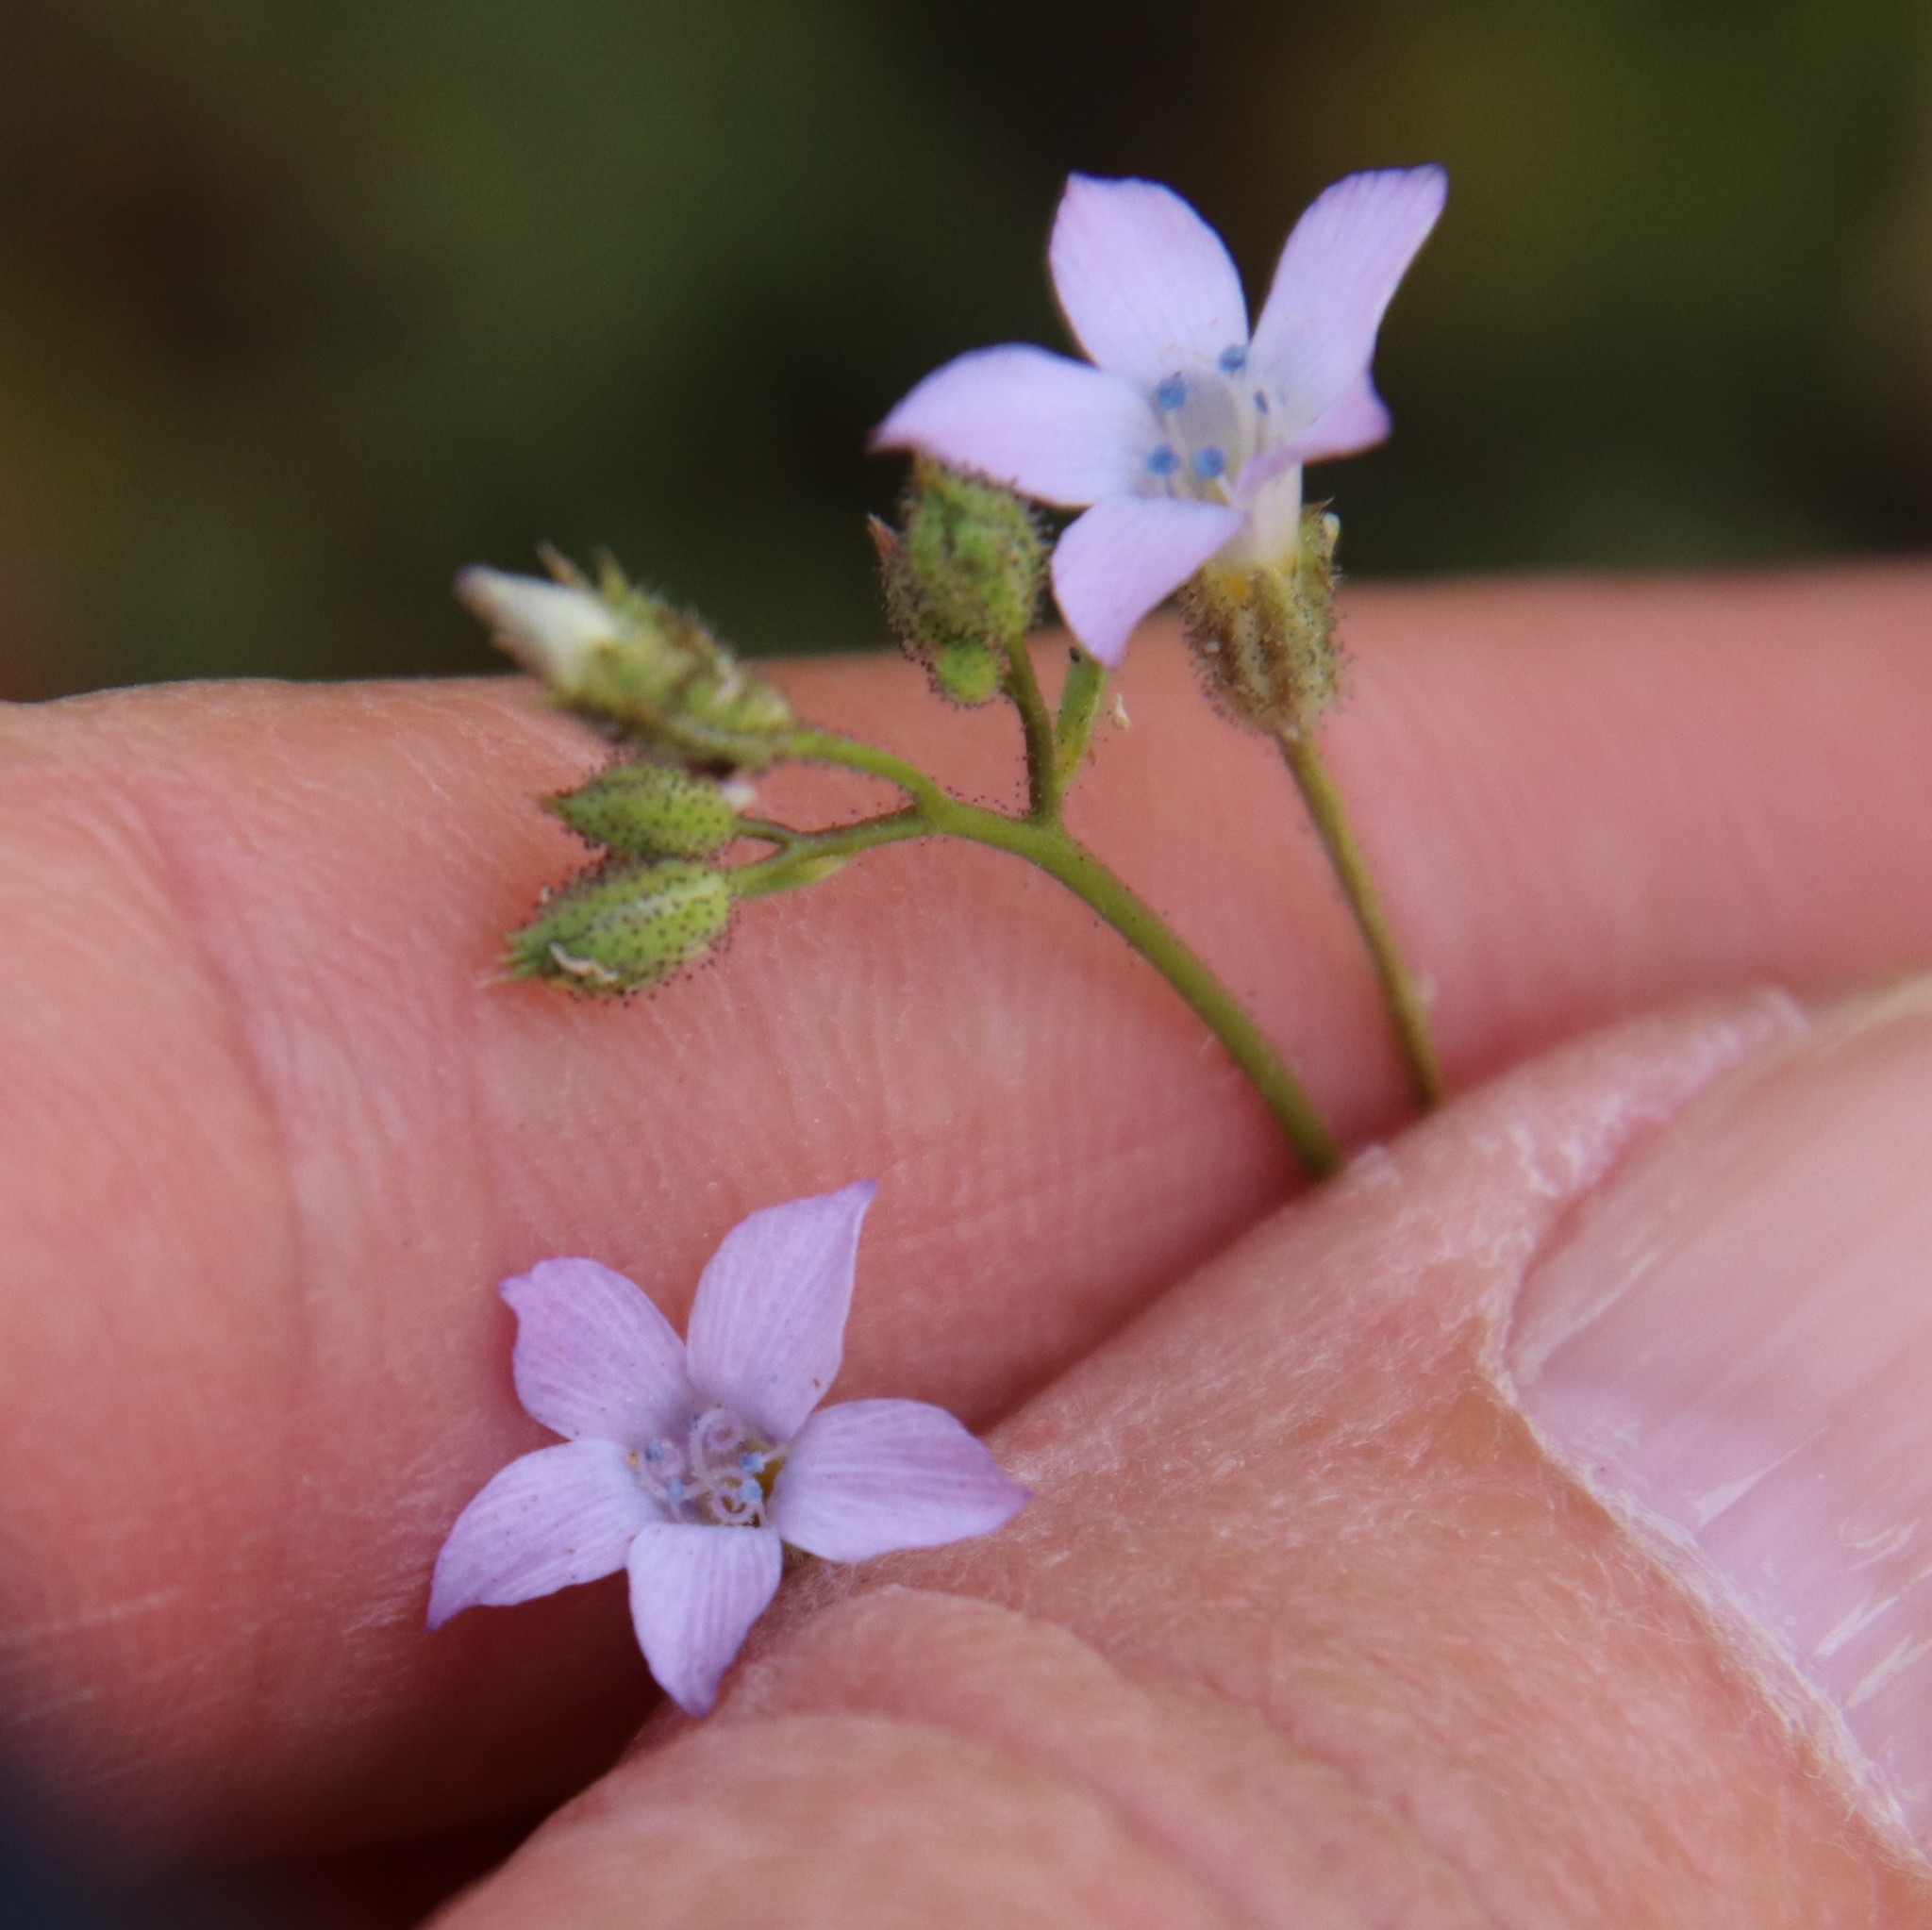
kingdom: Plantae
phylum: Tracheophyta
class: Magnoliopsida
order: Ericales
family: Polemoniaceae
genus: Gilia
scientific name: Gilia stellata
